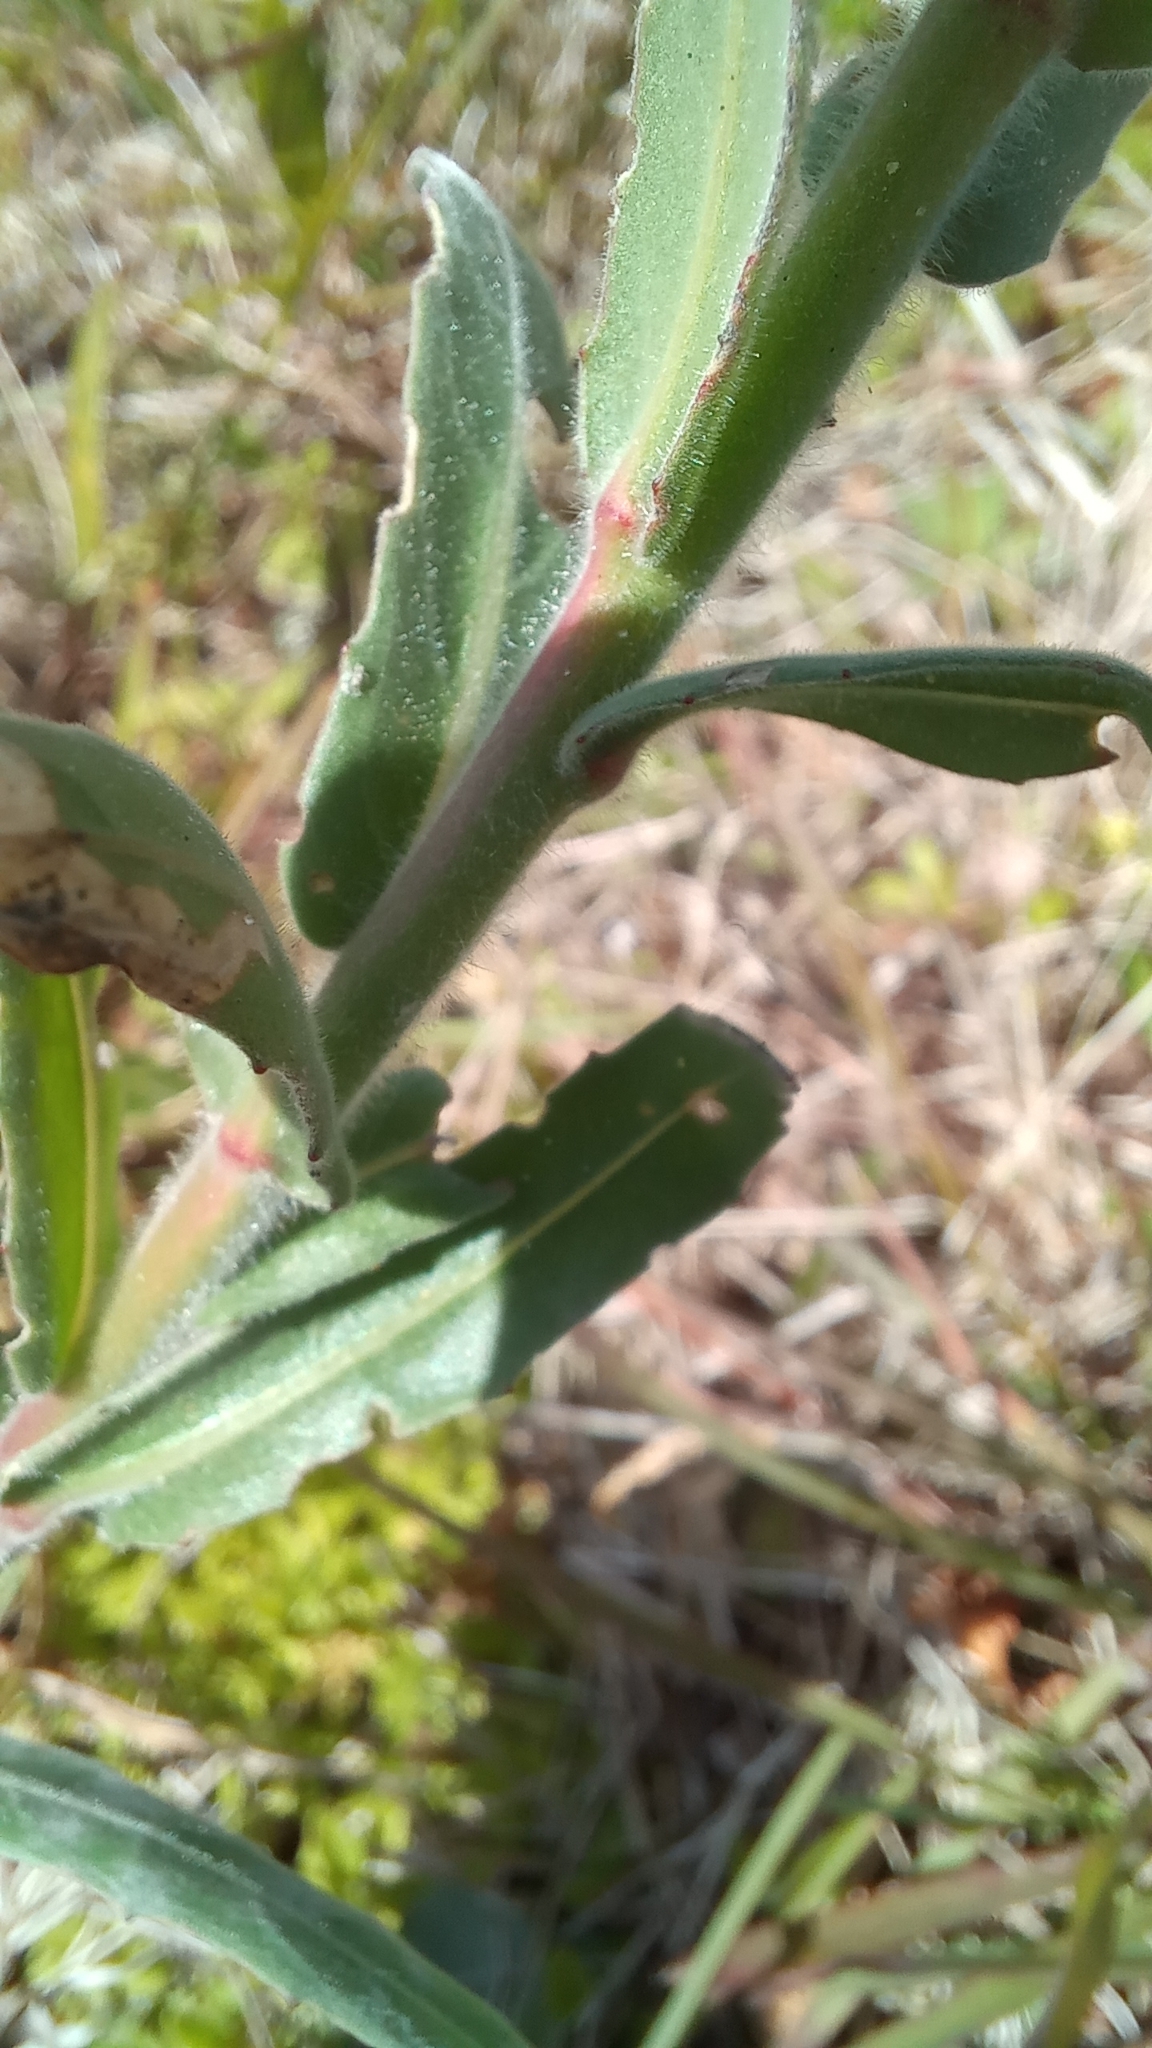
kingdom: Plantae
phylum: Tracheophyta
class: Magnoliopsida
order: Myrtales
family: Onagraceae
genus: Oenothera
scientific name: Oenothera mollissima
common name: Argentine evening primrose
